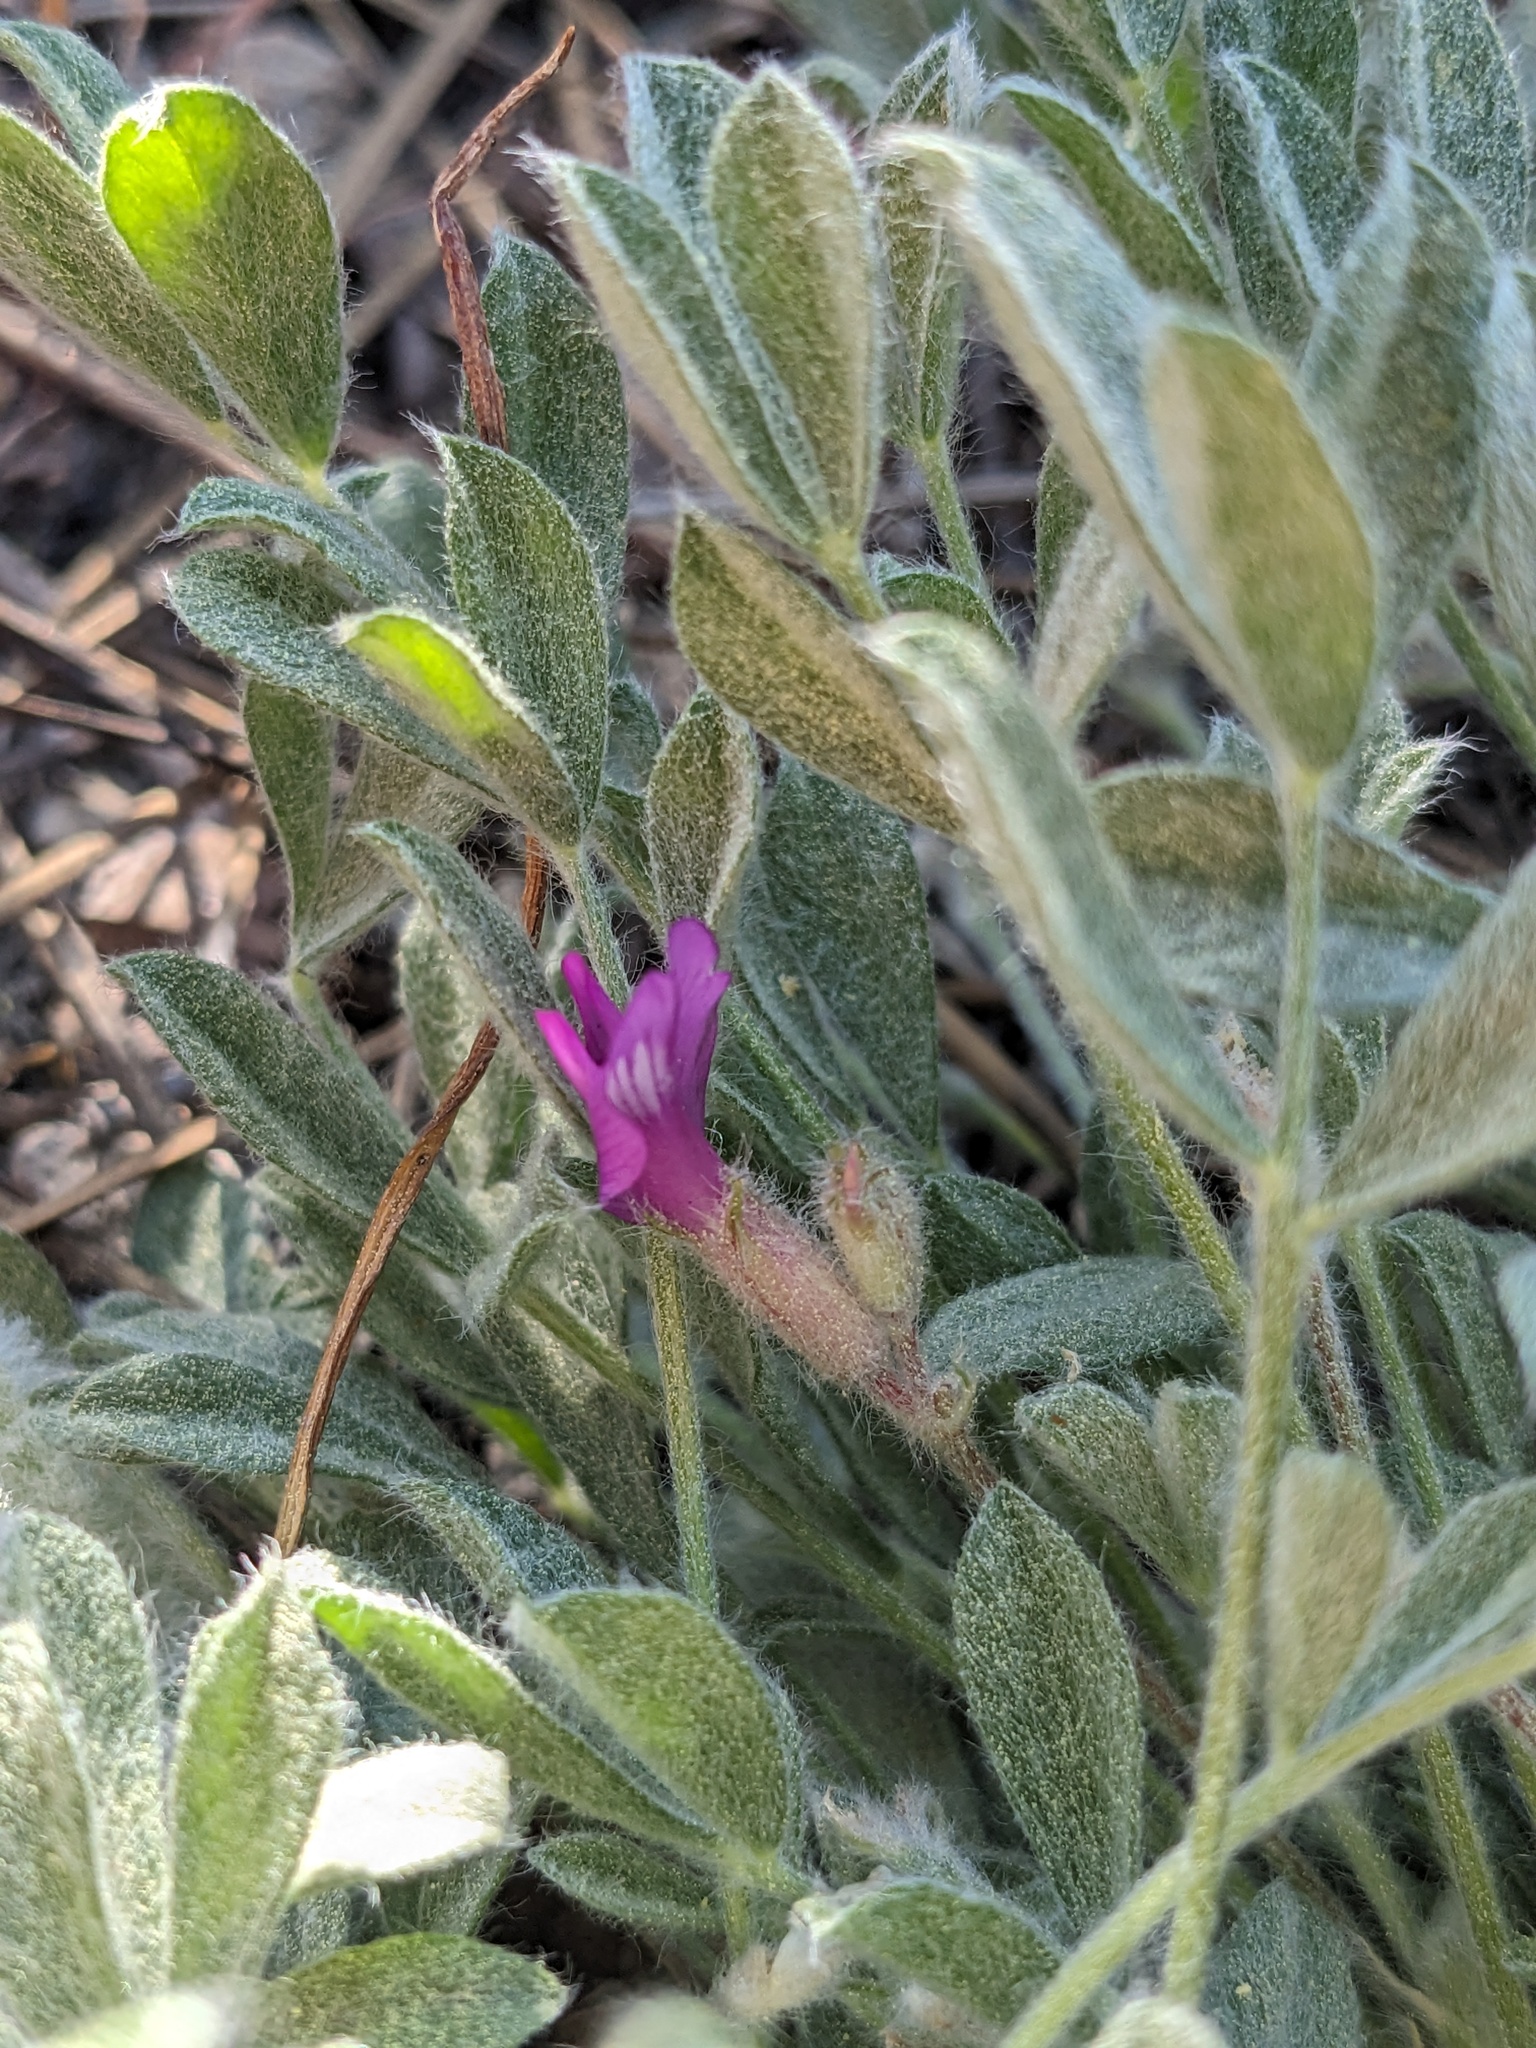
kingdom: Plantae
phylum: Tracheophyta
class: Magnoliopsida
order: Fabales
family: Fabaceae
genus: Astragalus
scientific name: Astragalus purshii
